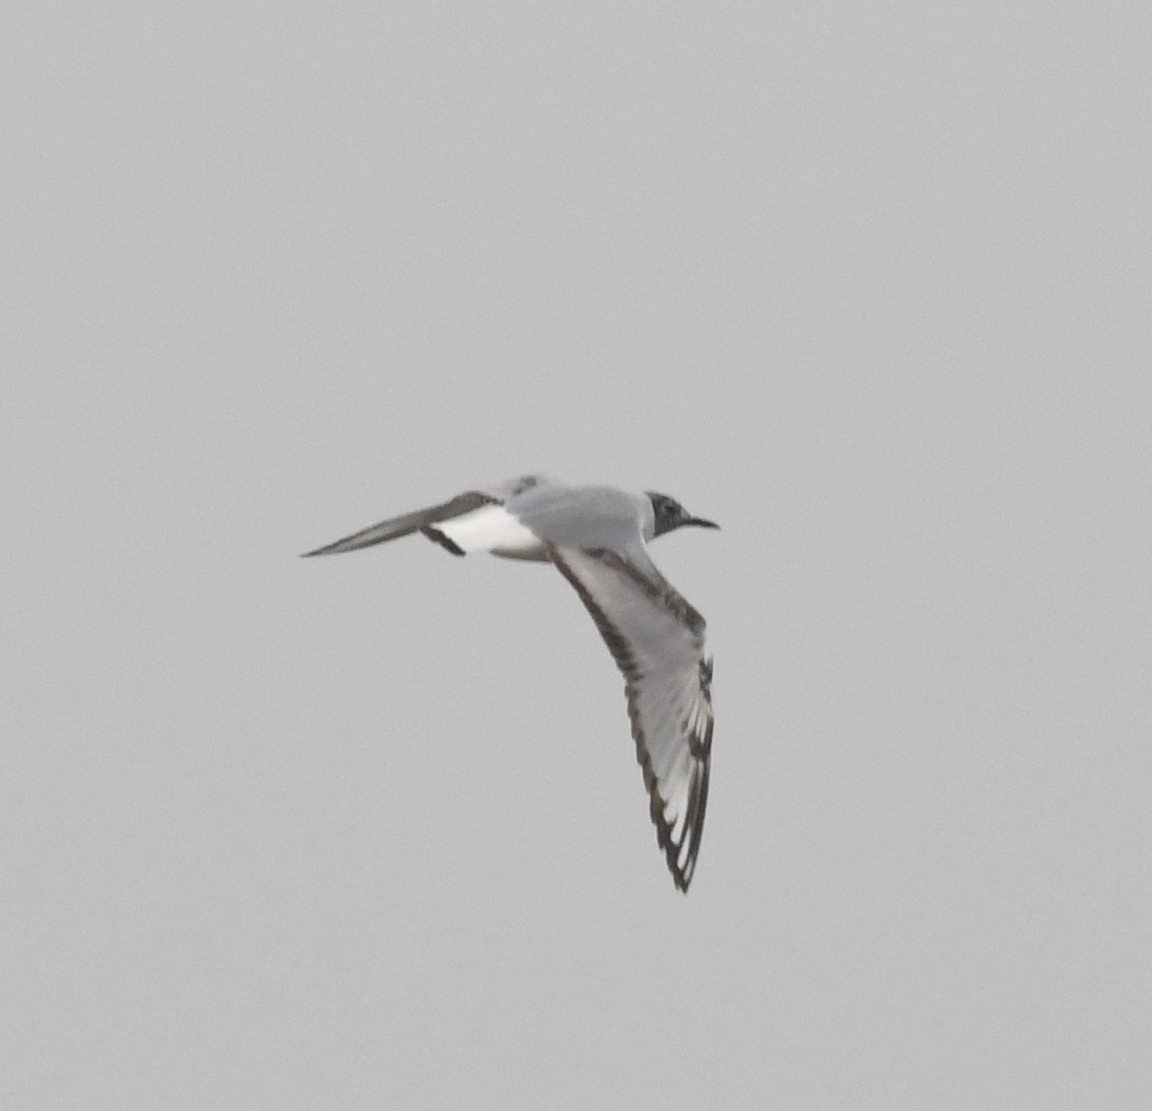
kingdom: Animalia
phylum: Chordata
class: Aves
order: Charadriiformes
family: Laridae
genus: Chroicocephalus
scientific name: Chroicocephalus philadelphia
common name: Bonaparte's gull
